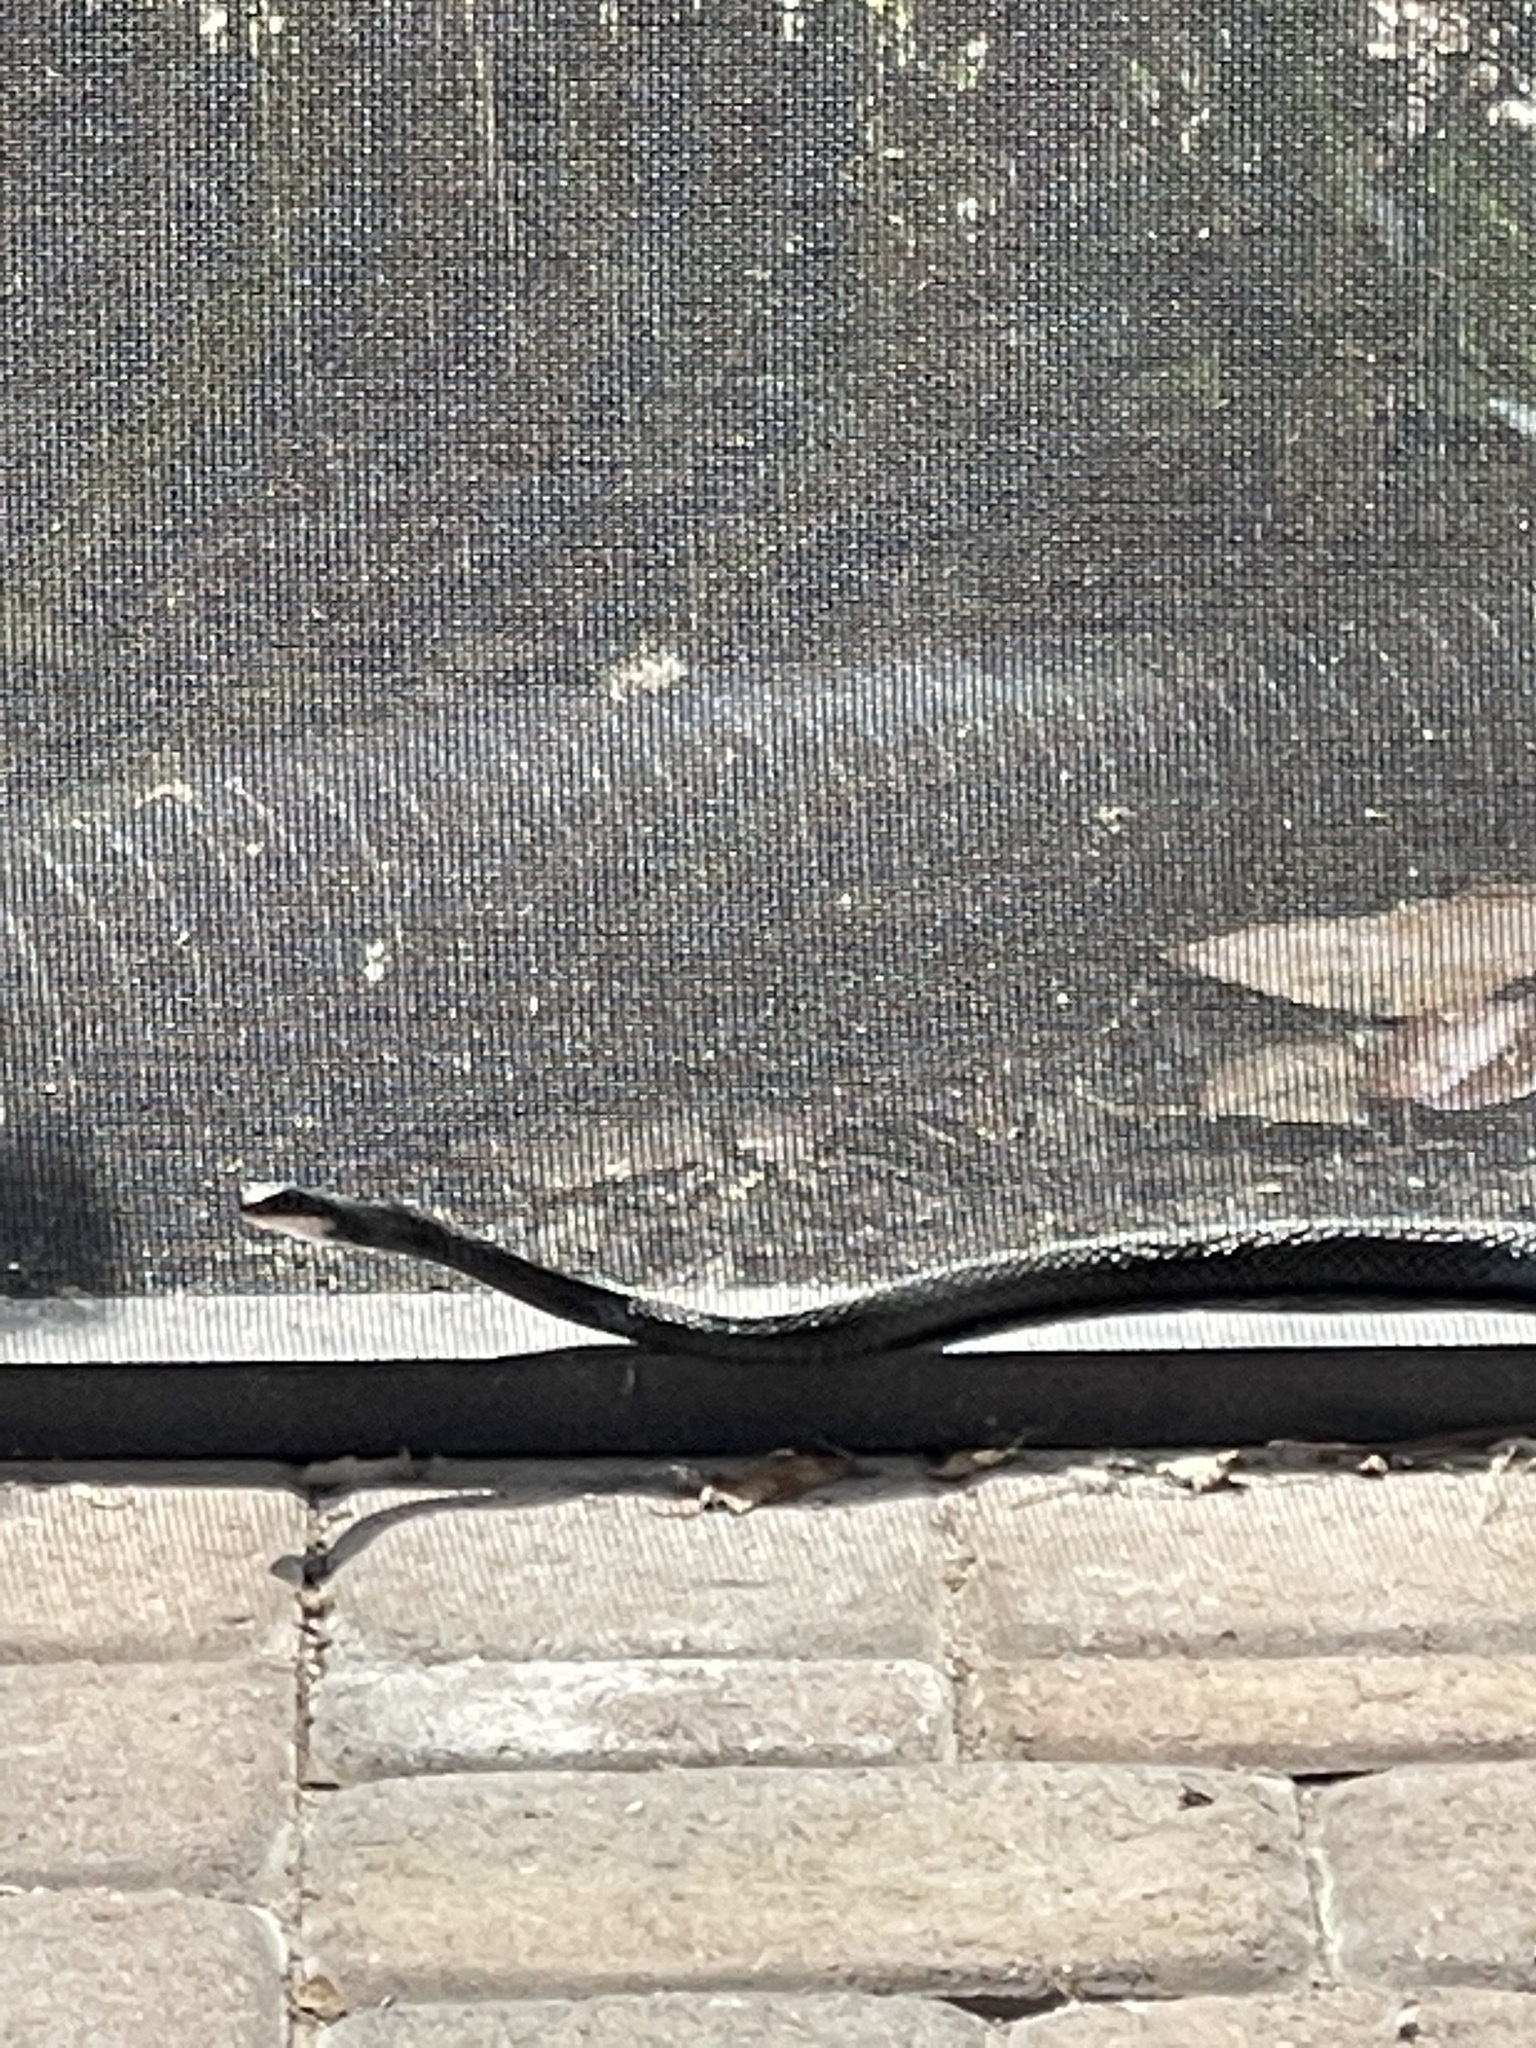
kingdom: Animalia
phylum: Chordata
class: Squamata
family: Colubridae
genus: Coluber
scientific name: Coluber constrictor
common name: Eastern racer
